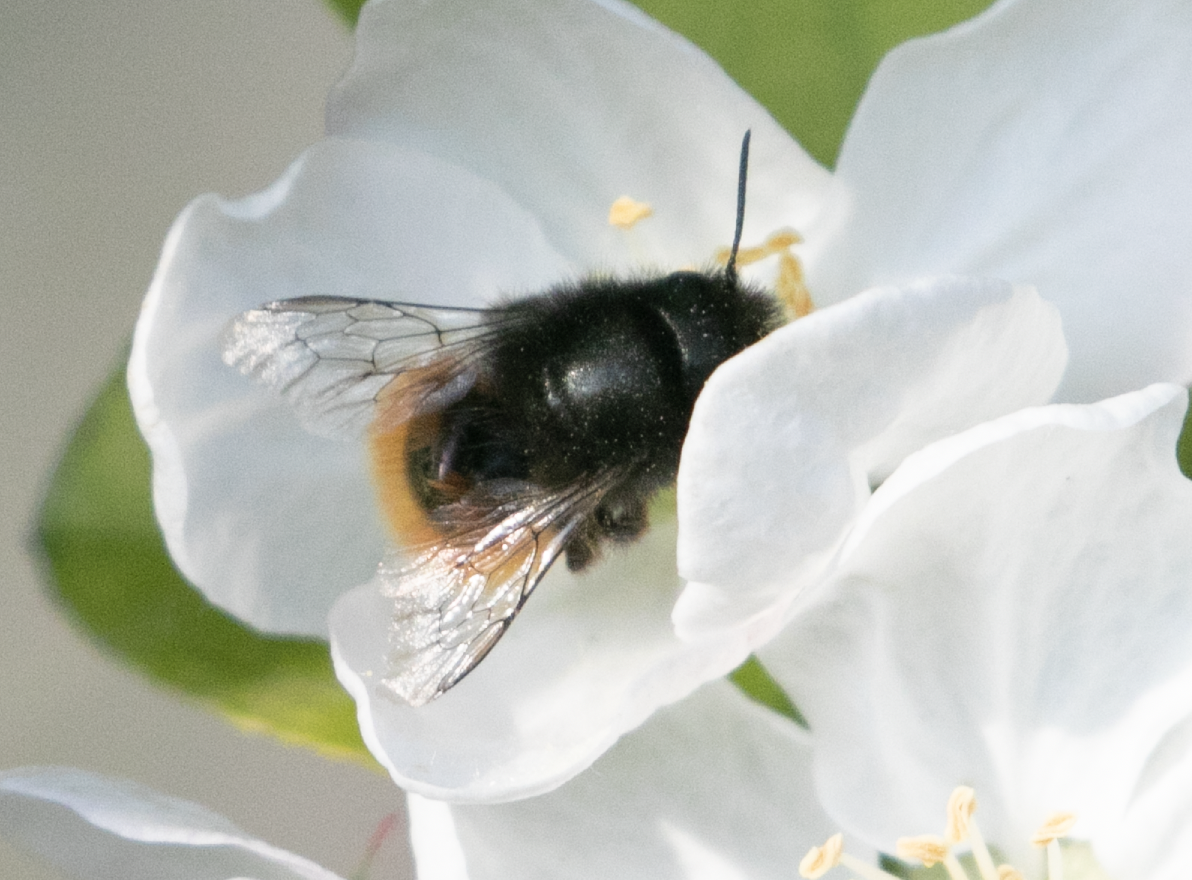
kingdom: Animalia
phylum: Arthropoda
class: Insecta
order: Hymenoptera
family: Megachilidae
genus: Osmia
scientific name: Osmia cornuta
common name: Mason bee
